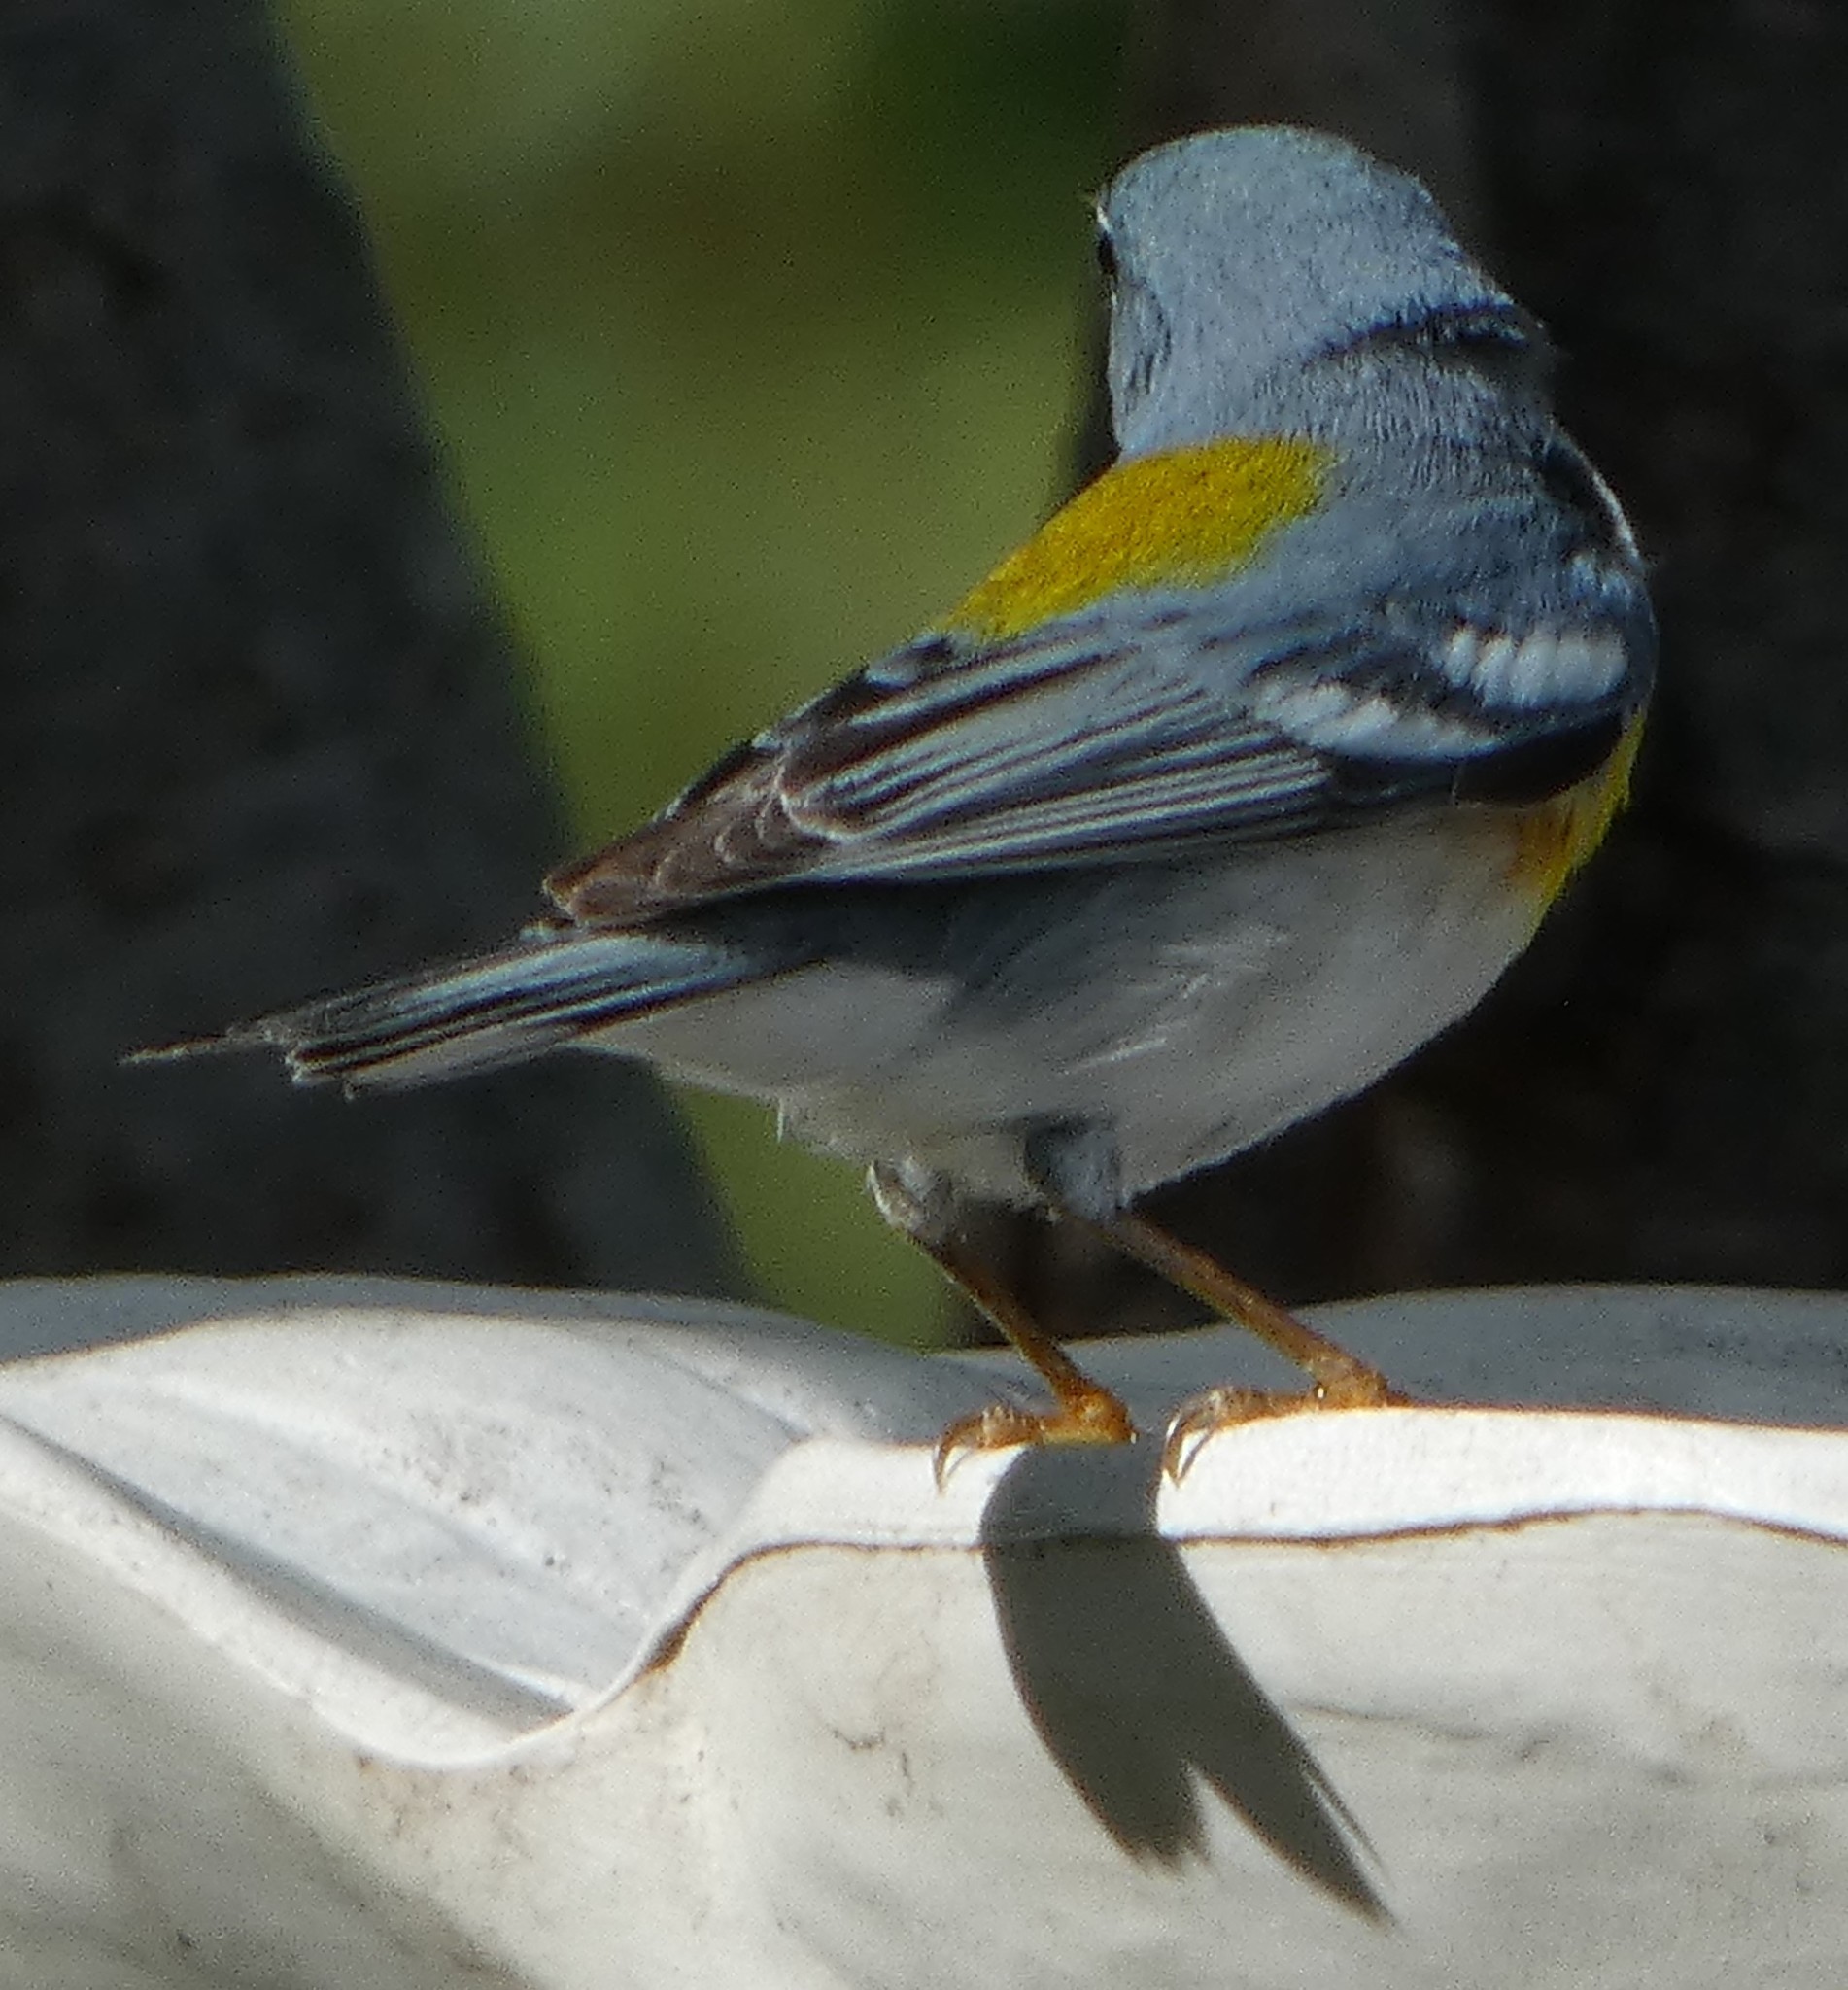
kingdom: Animalia
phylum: Chordata
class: Aves
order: Passeriformes
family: Parulidae
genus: Setophaga
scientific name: Setophaga americana
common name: Northern parula
